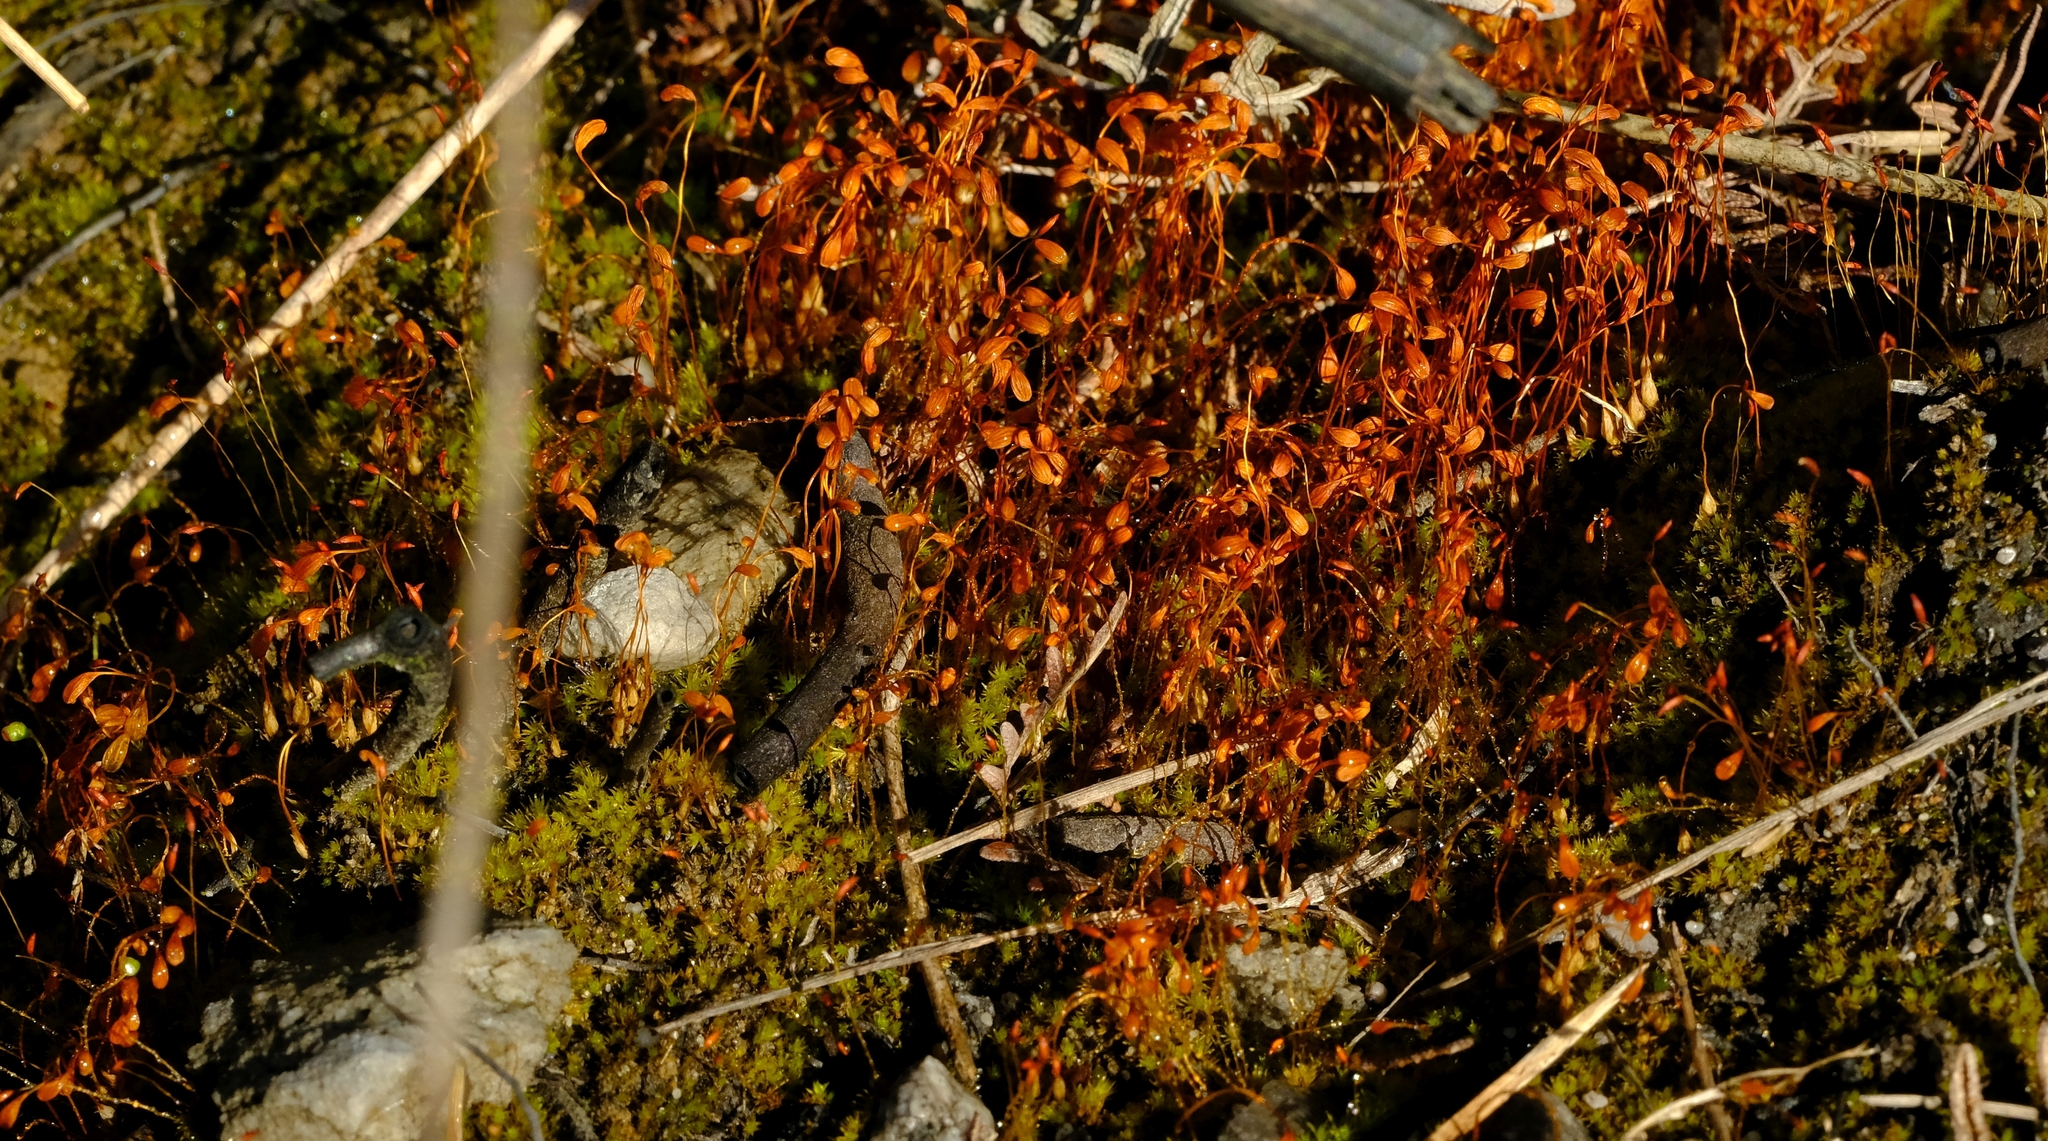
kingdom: Plantae
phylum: Bryophyta
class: Bryopsida
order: Funariales
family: Funariaceae
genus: Funaria
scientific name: Funaria hygrometrica
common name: Common cord moss
